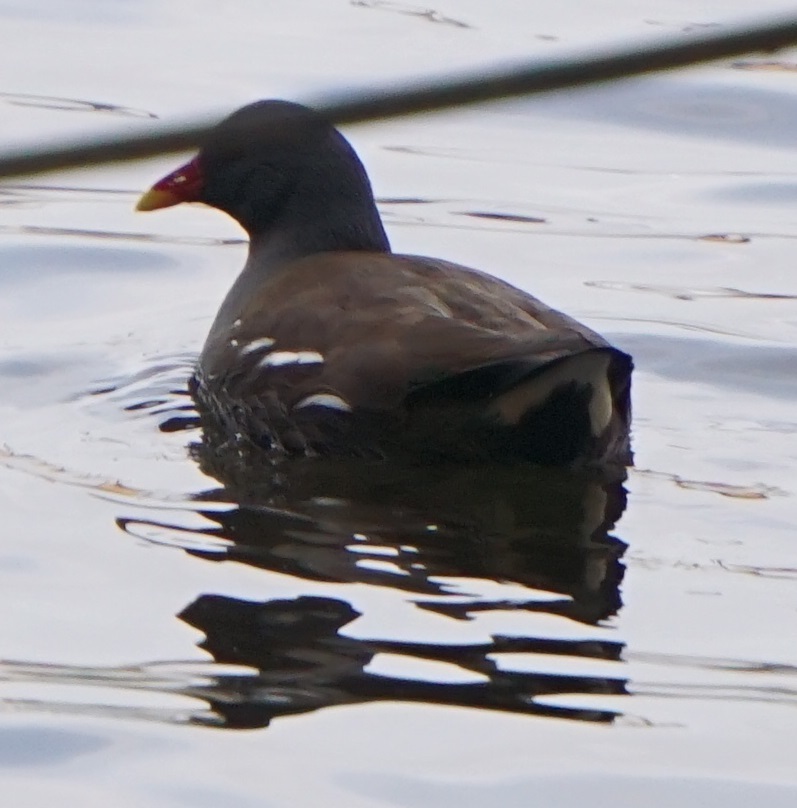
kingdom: Animalia
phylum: Chordata
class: Aves
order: Gruiformes
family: Rallidae
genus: Gallinula
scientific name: Gallinula chloropus
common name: Common moorhen
